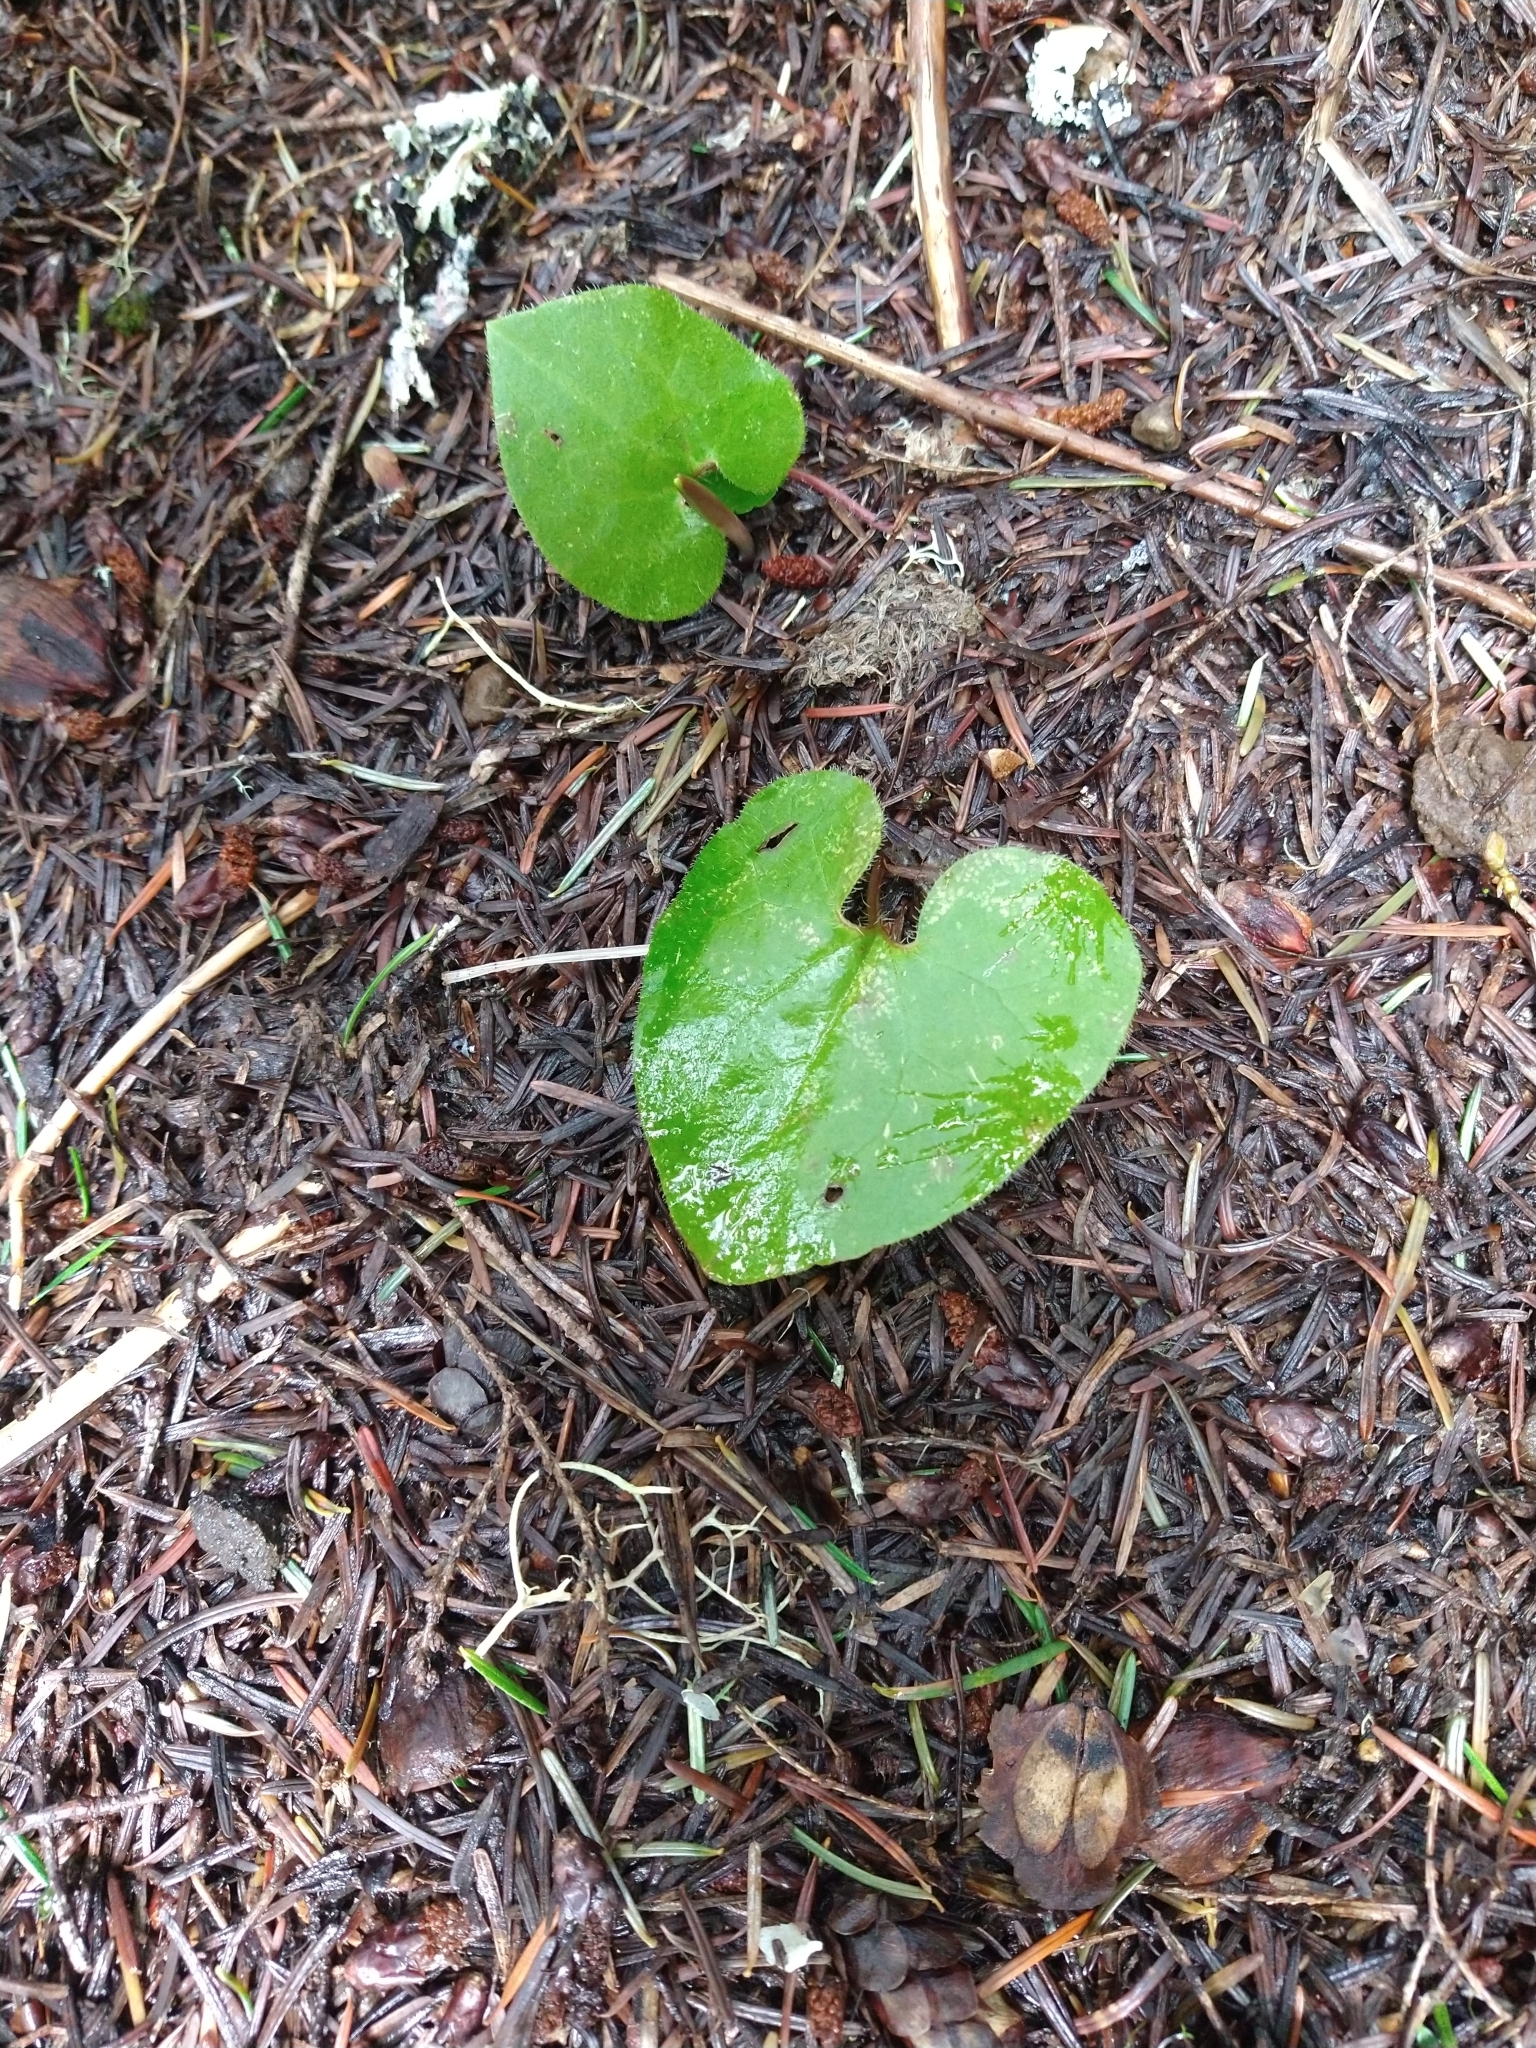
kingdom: Plantae
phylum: Tracheophyta
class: Magnoliopsida
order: Piperales
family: Aristolochiaceae
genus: Asarum
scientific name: Asarum caudatum
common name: Wild ginger
